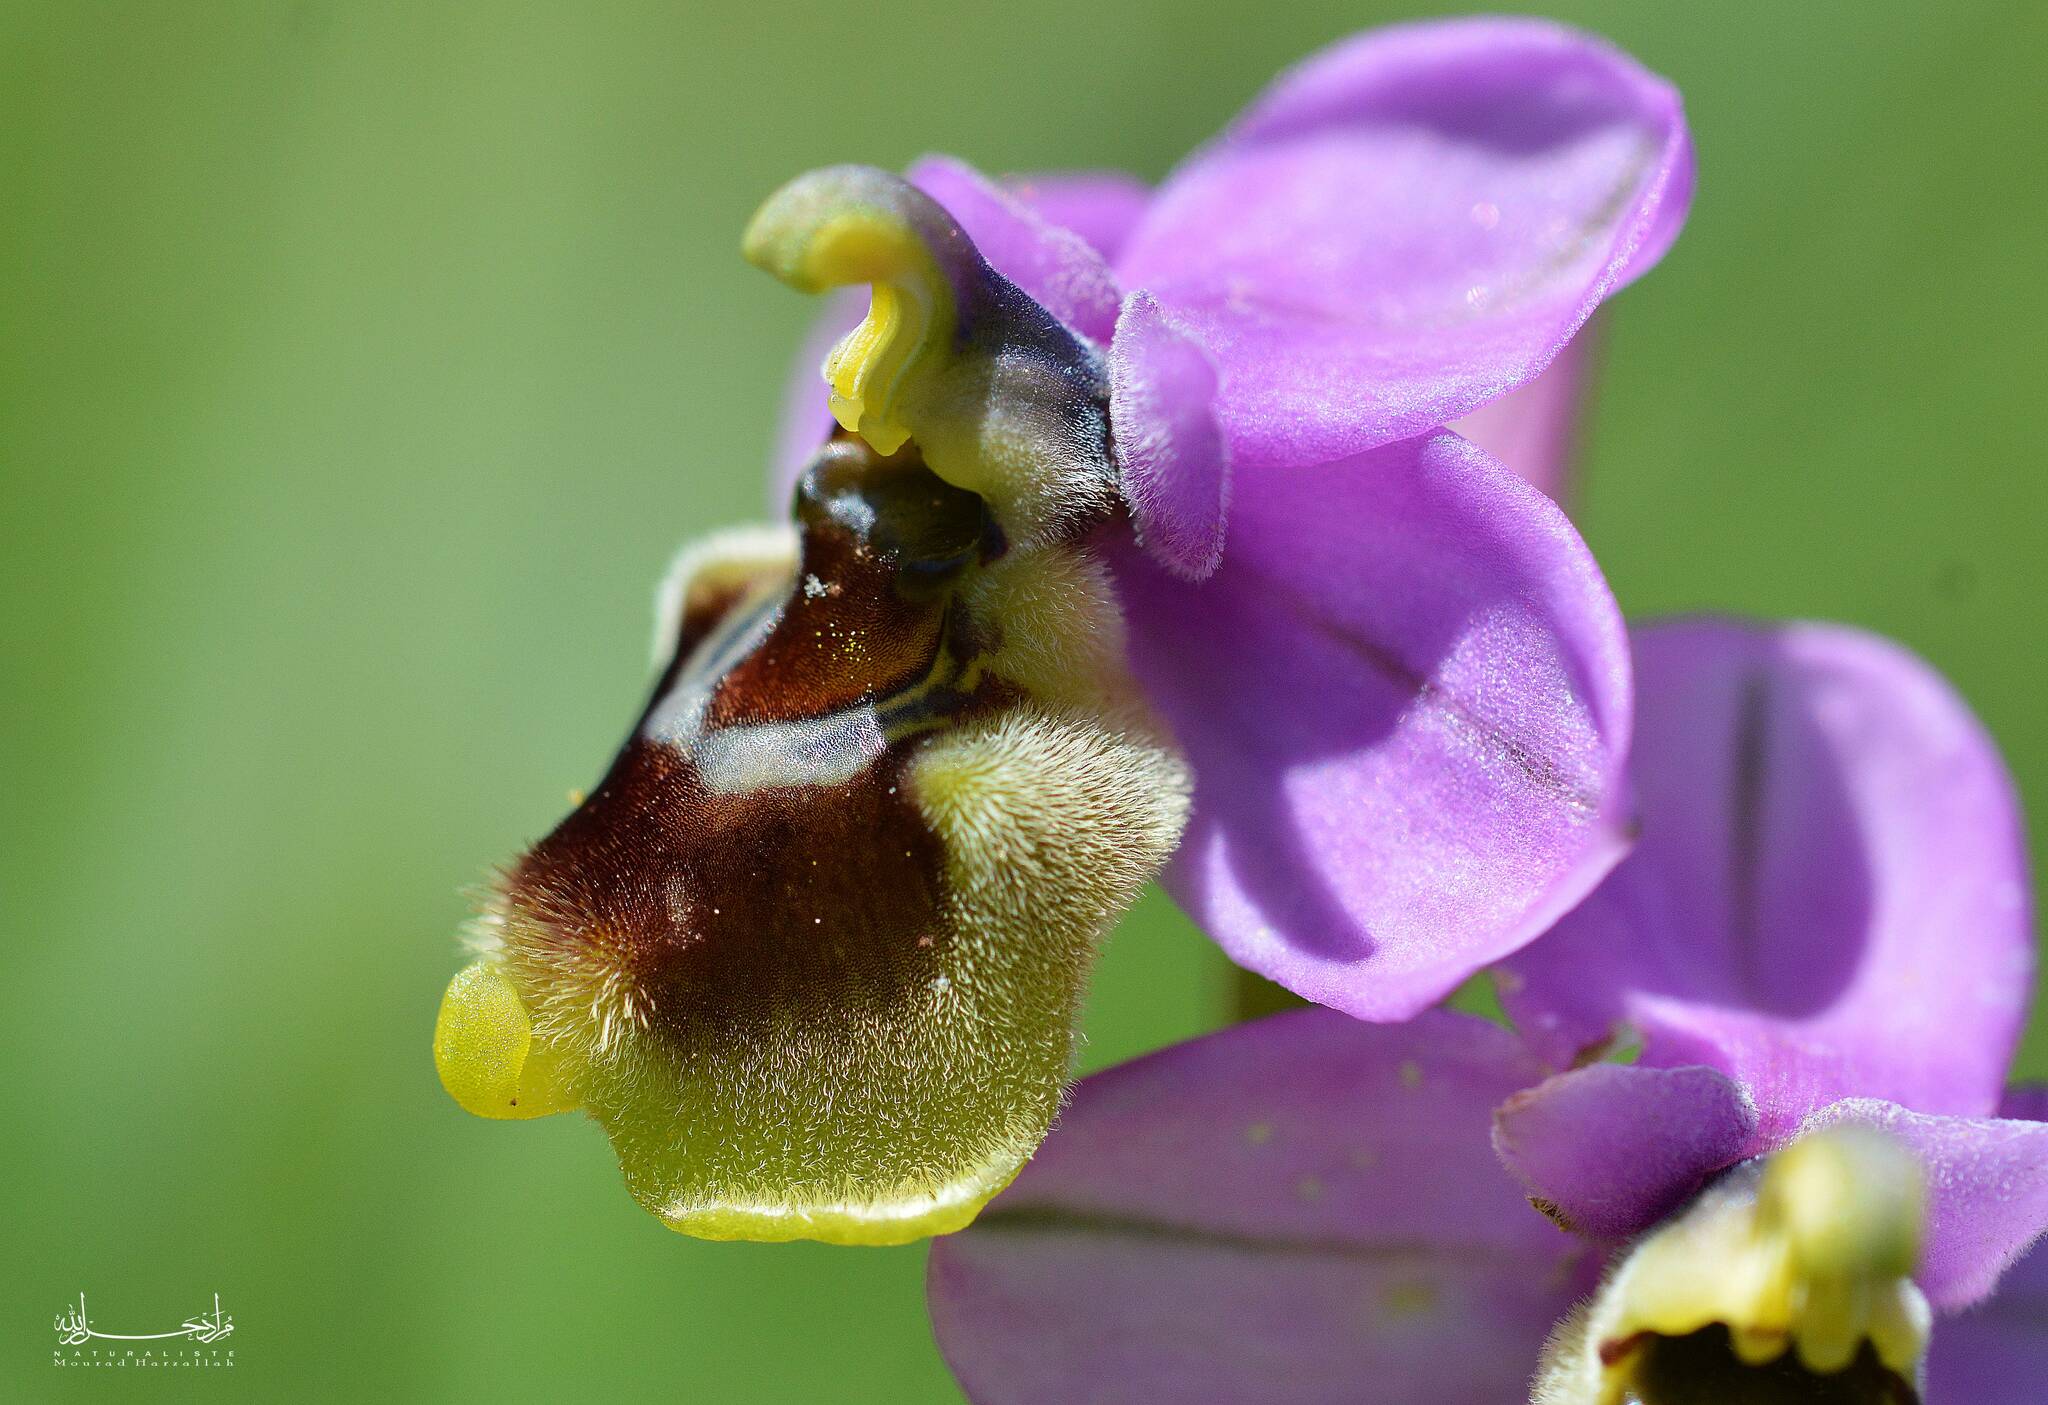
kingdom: Plantae
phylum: Tracheophyta
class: Liliopsida
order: Asparagales
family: Orchidaceae
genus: Ophrys
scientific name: Ophrys tenthredinifera
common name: Sawfly orchid
